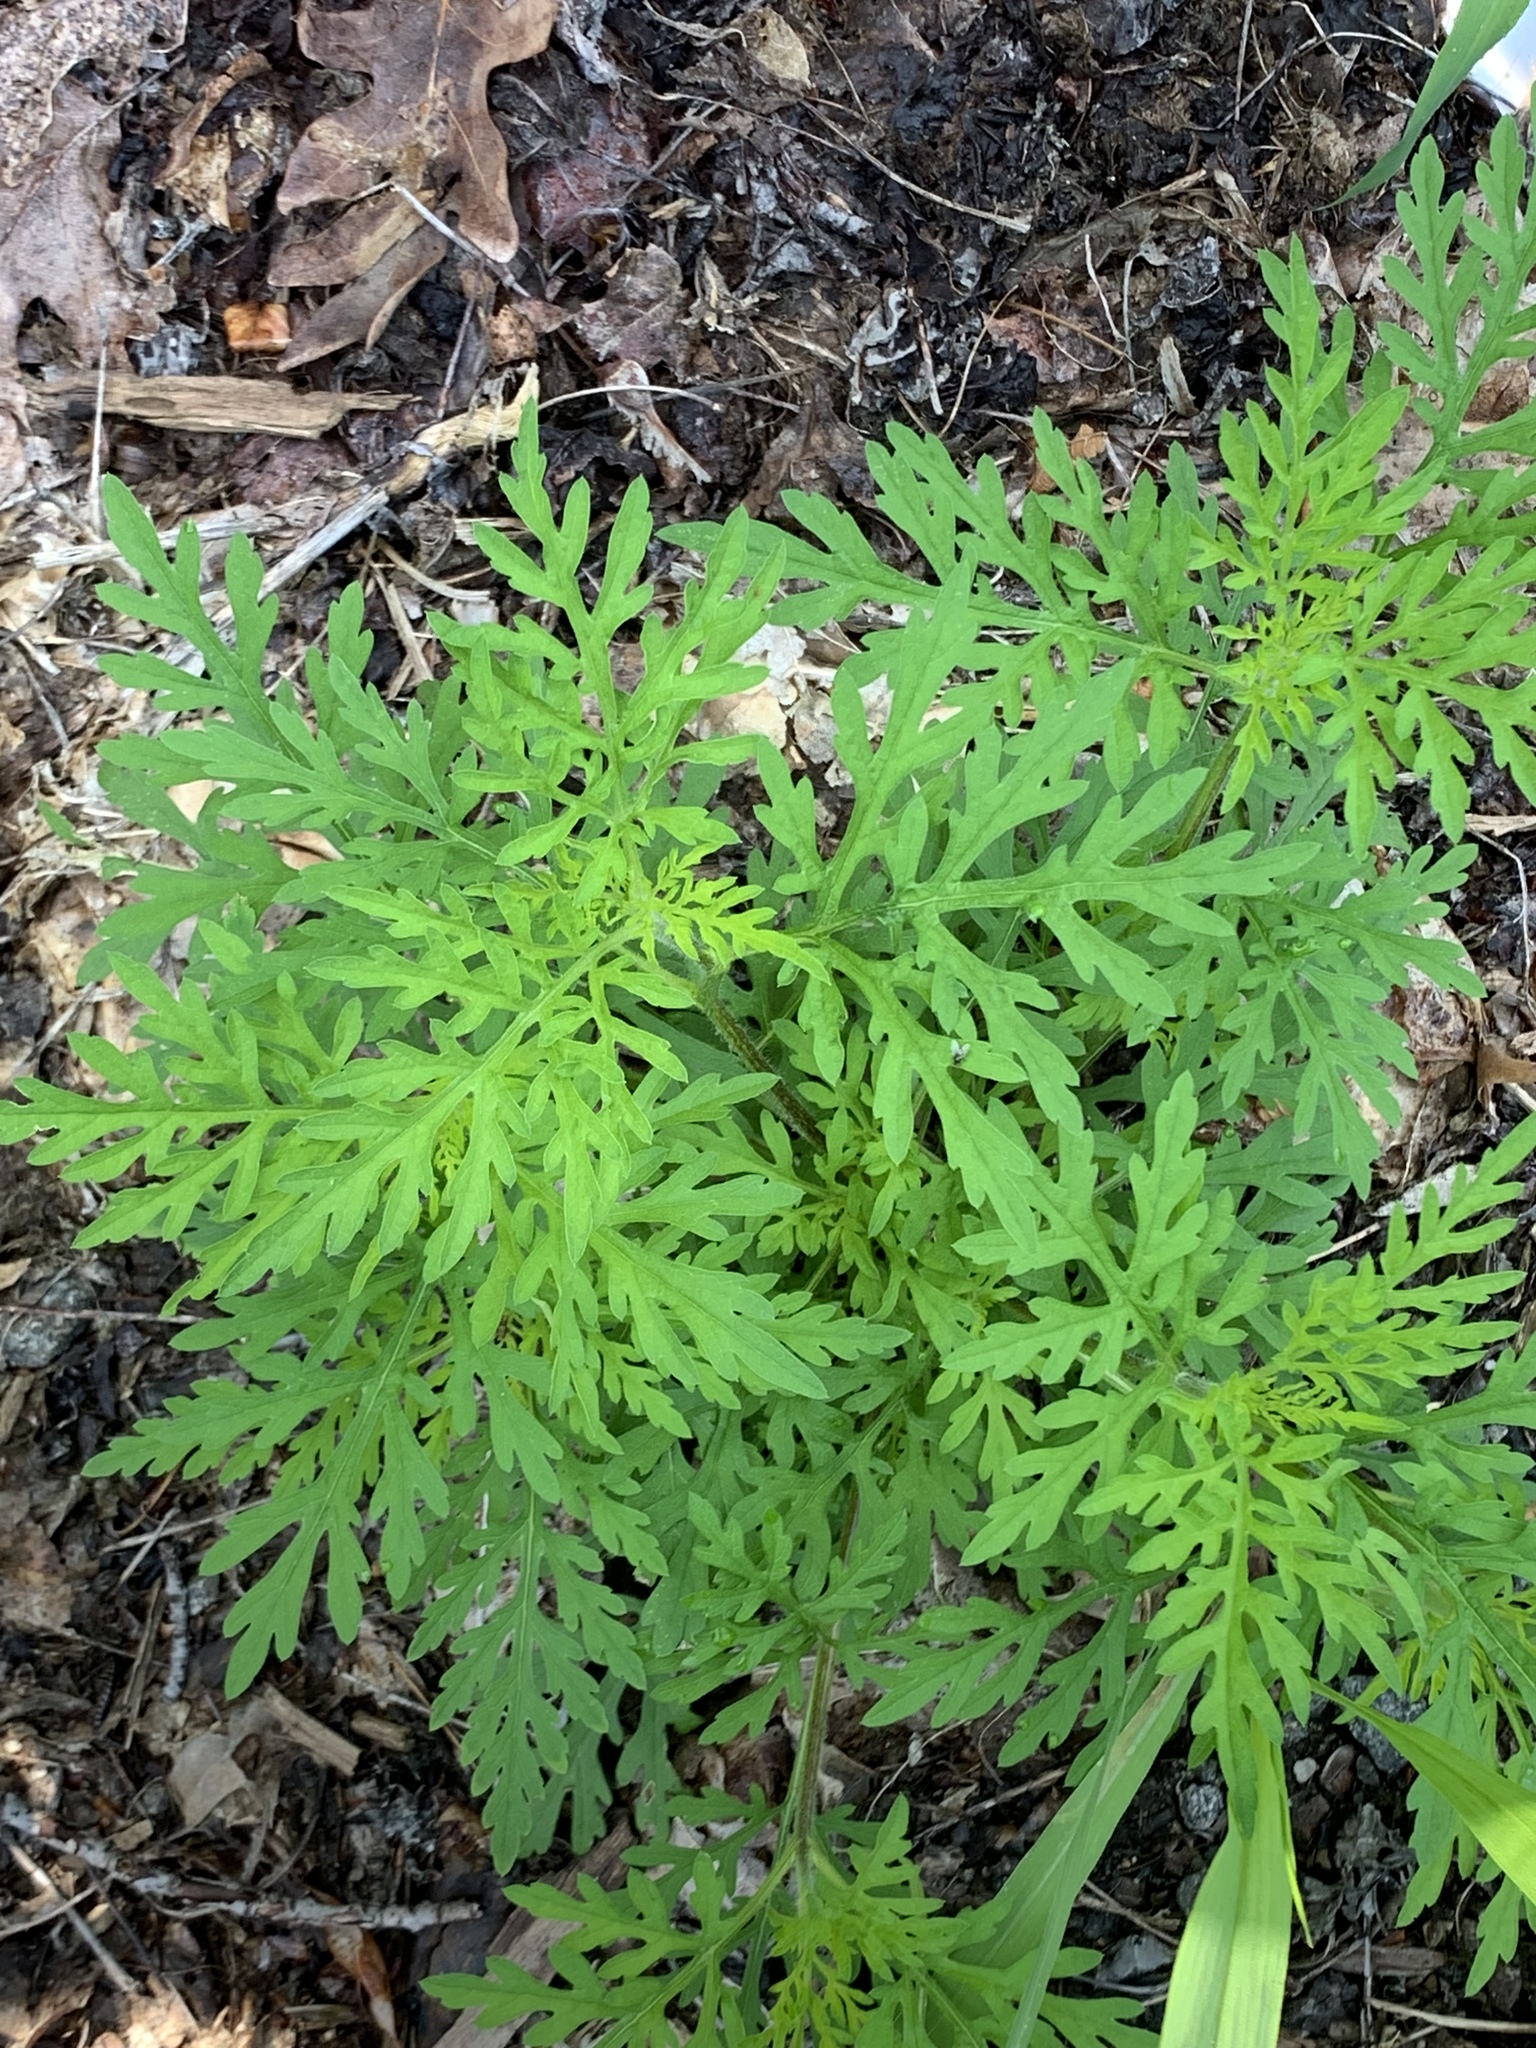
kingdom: Plantae
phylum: Tracheophyta
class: Magnoliopsida
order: Asterales
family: Asteraceae
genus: Ambrosia
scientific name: Ambrosia artemisiifolia
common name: Annual ragweed
